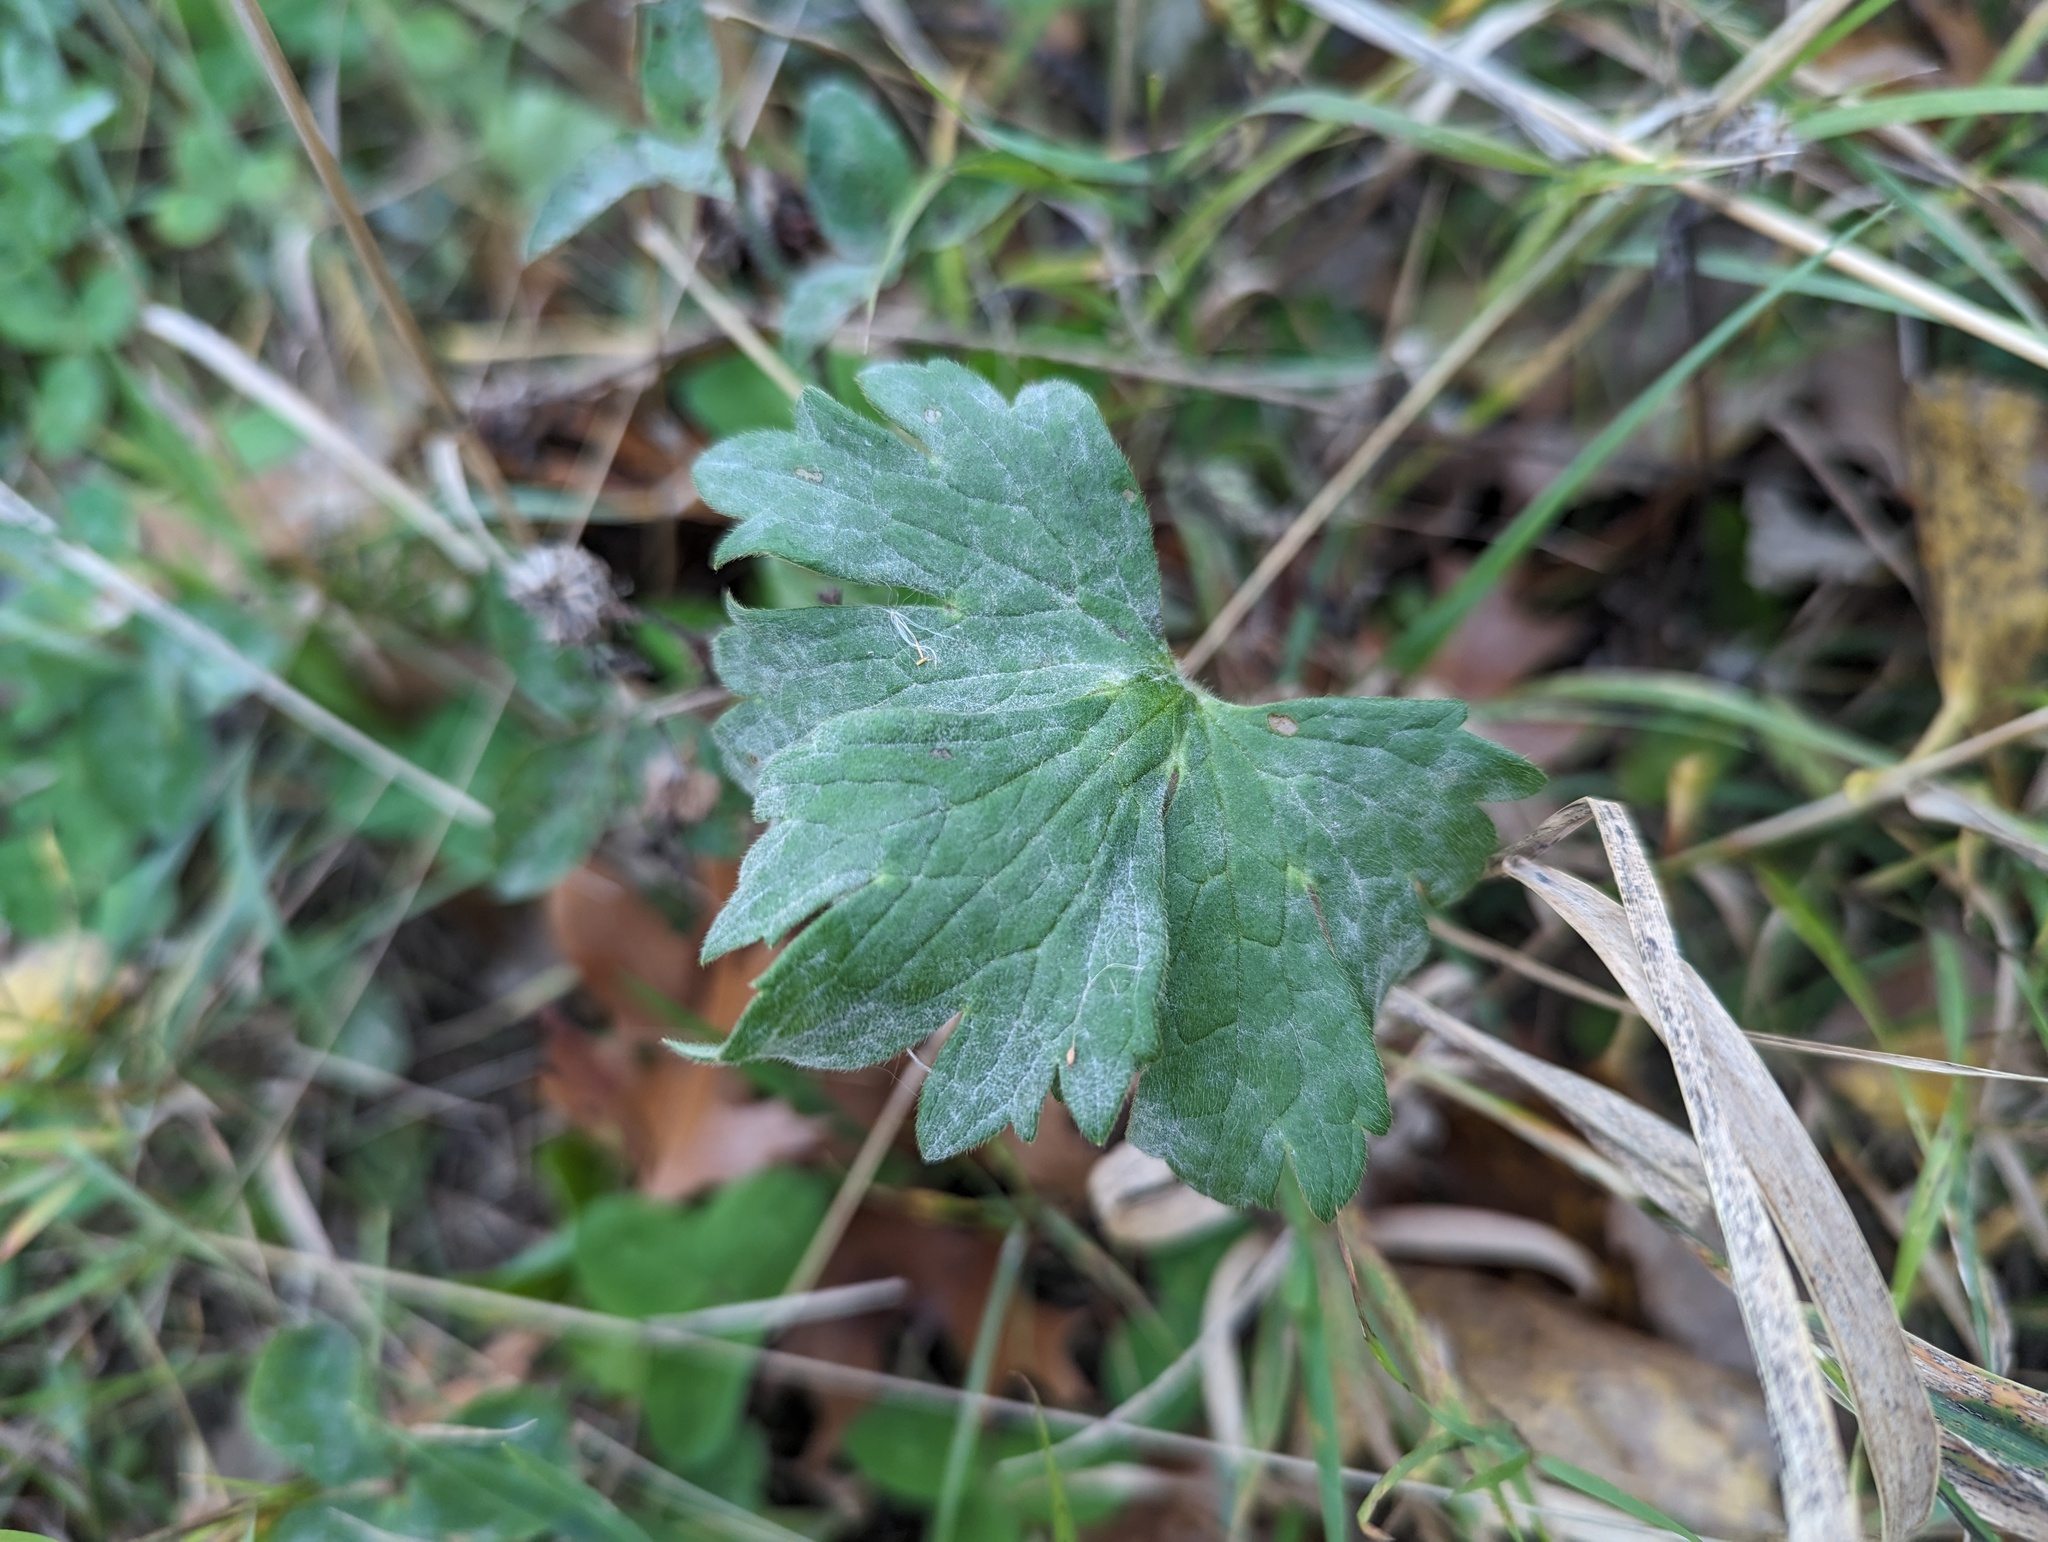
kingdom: Fungi
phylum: Ascomycota
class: Leotiomycetes
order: Helotiales
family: Erysiphaceae
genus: Erysiphe
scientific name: Erysiphe aquilegiae
